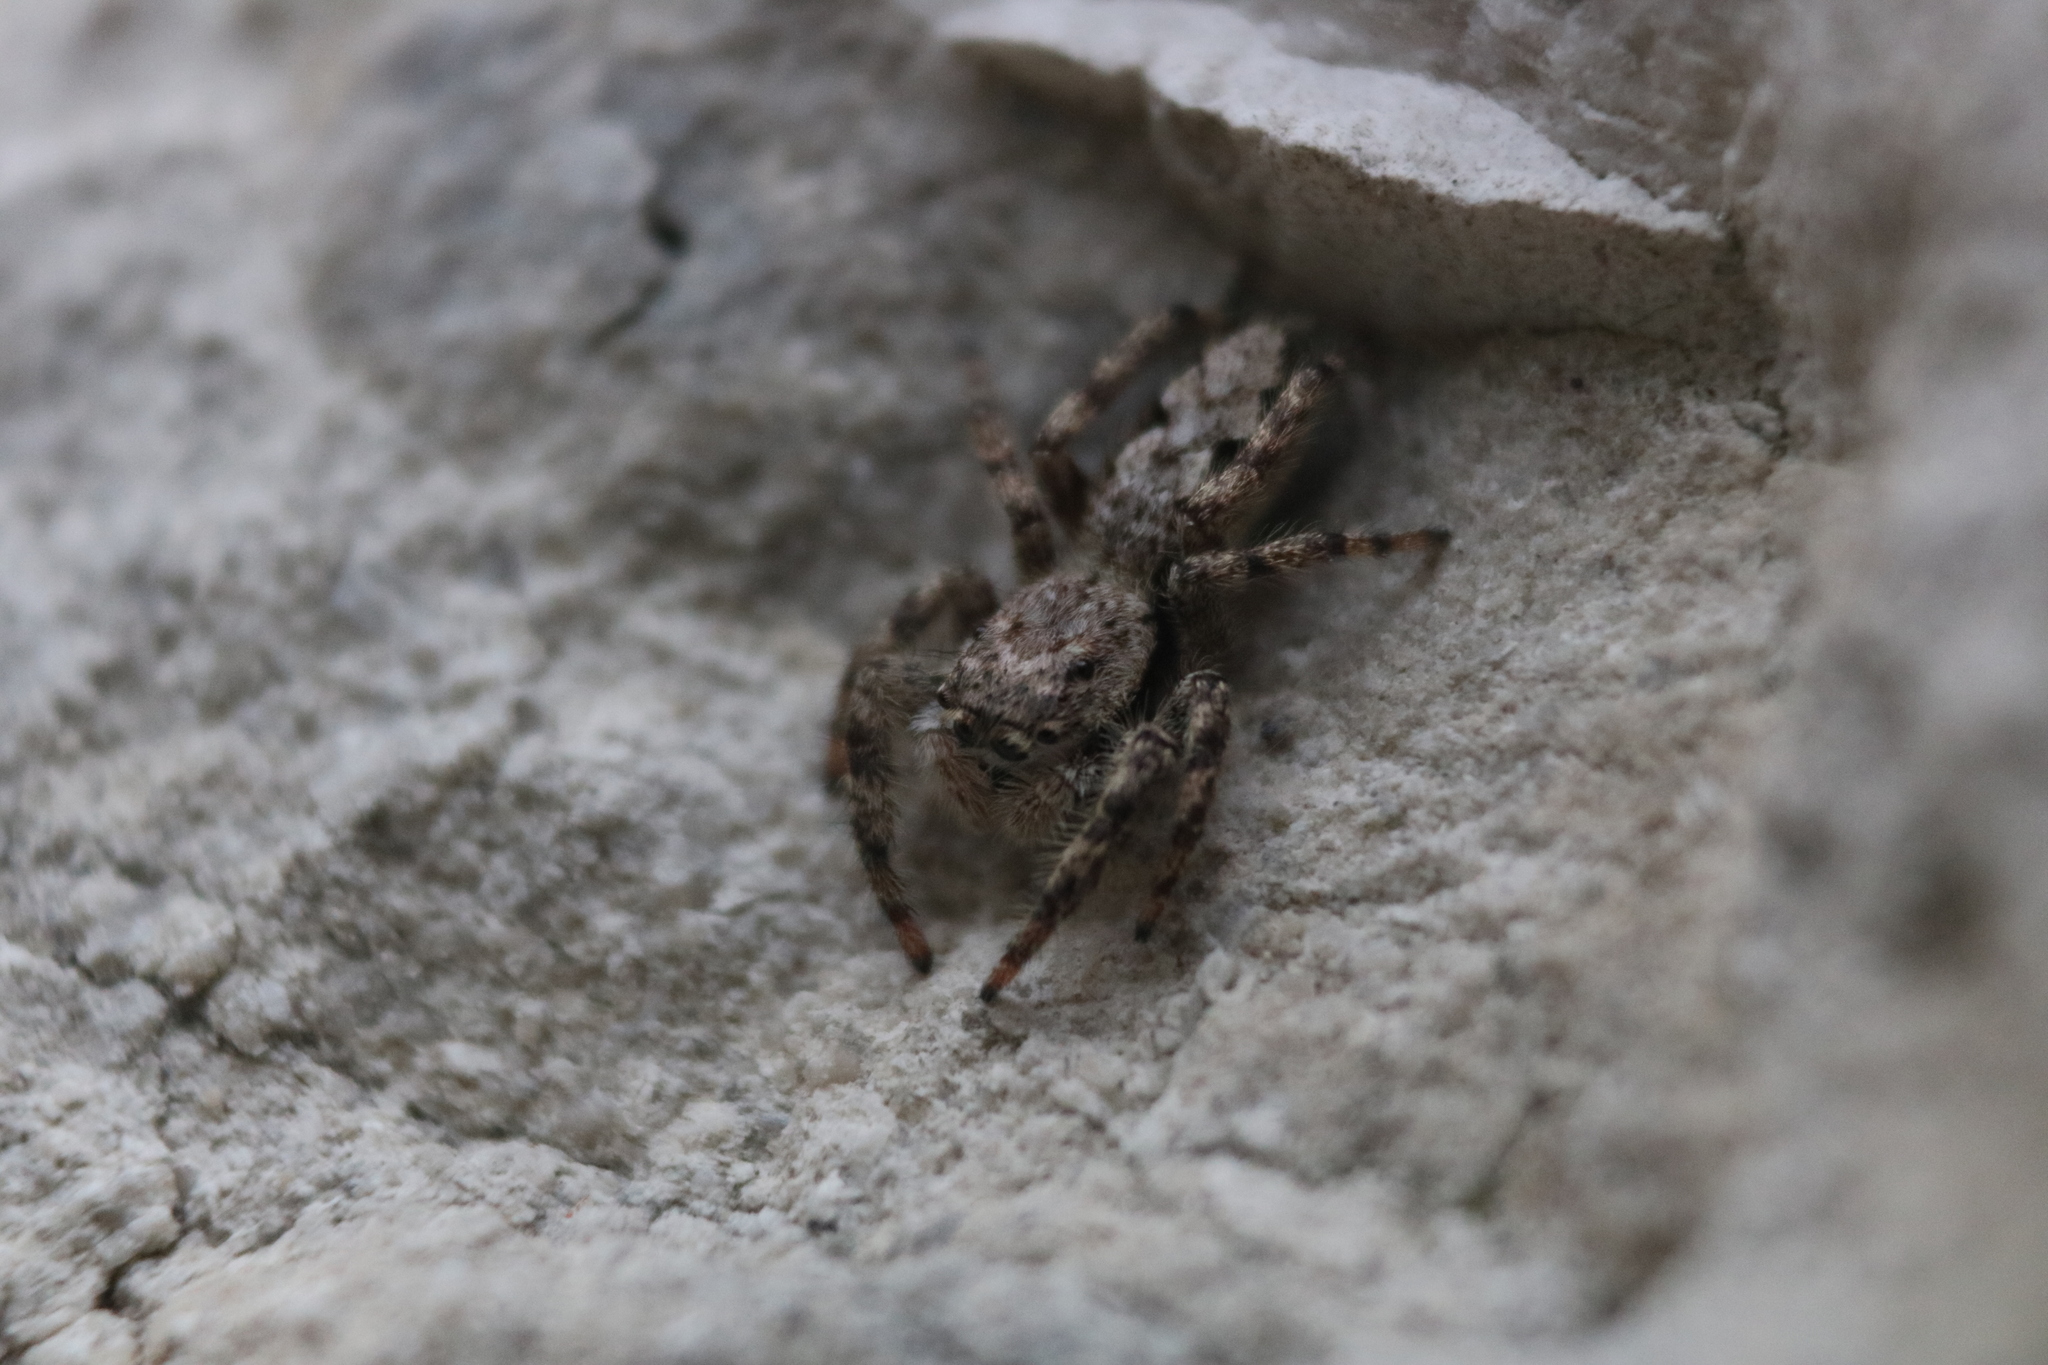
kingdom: Animalia
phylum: Arthropoda
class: Arachnida
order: Araneae
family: Salticidae
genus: Platycryptus
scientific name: Platycryptus undatus
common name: Tan jumping spider
